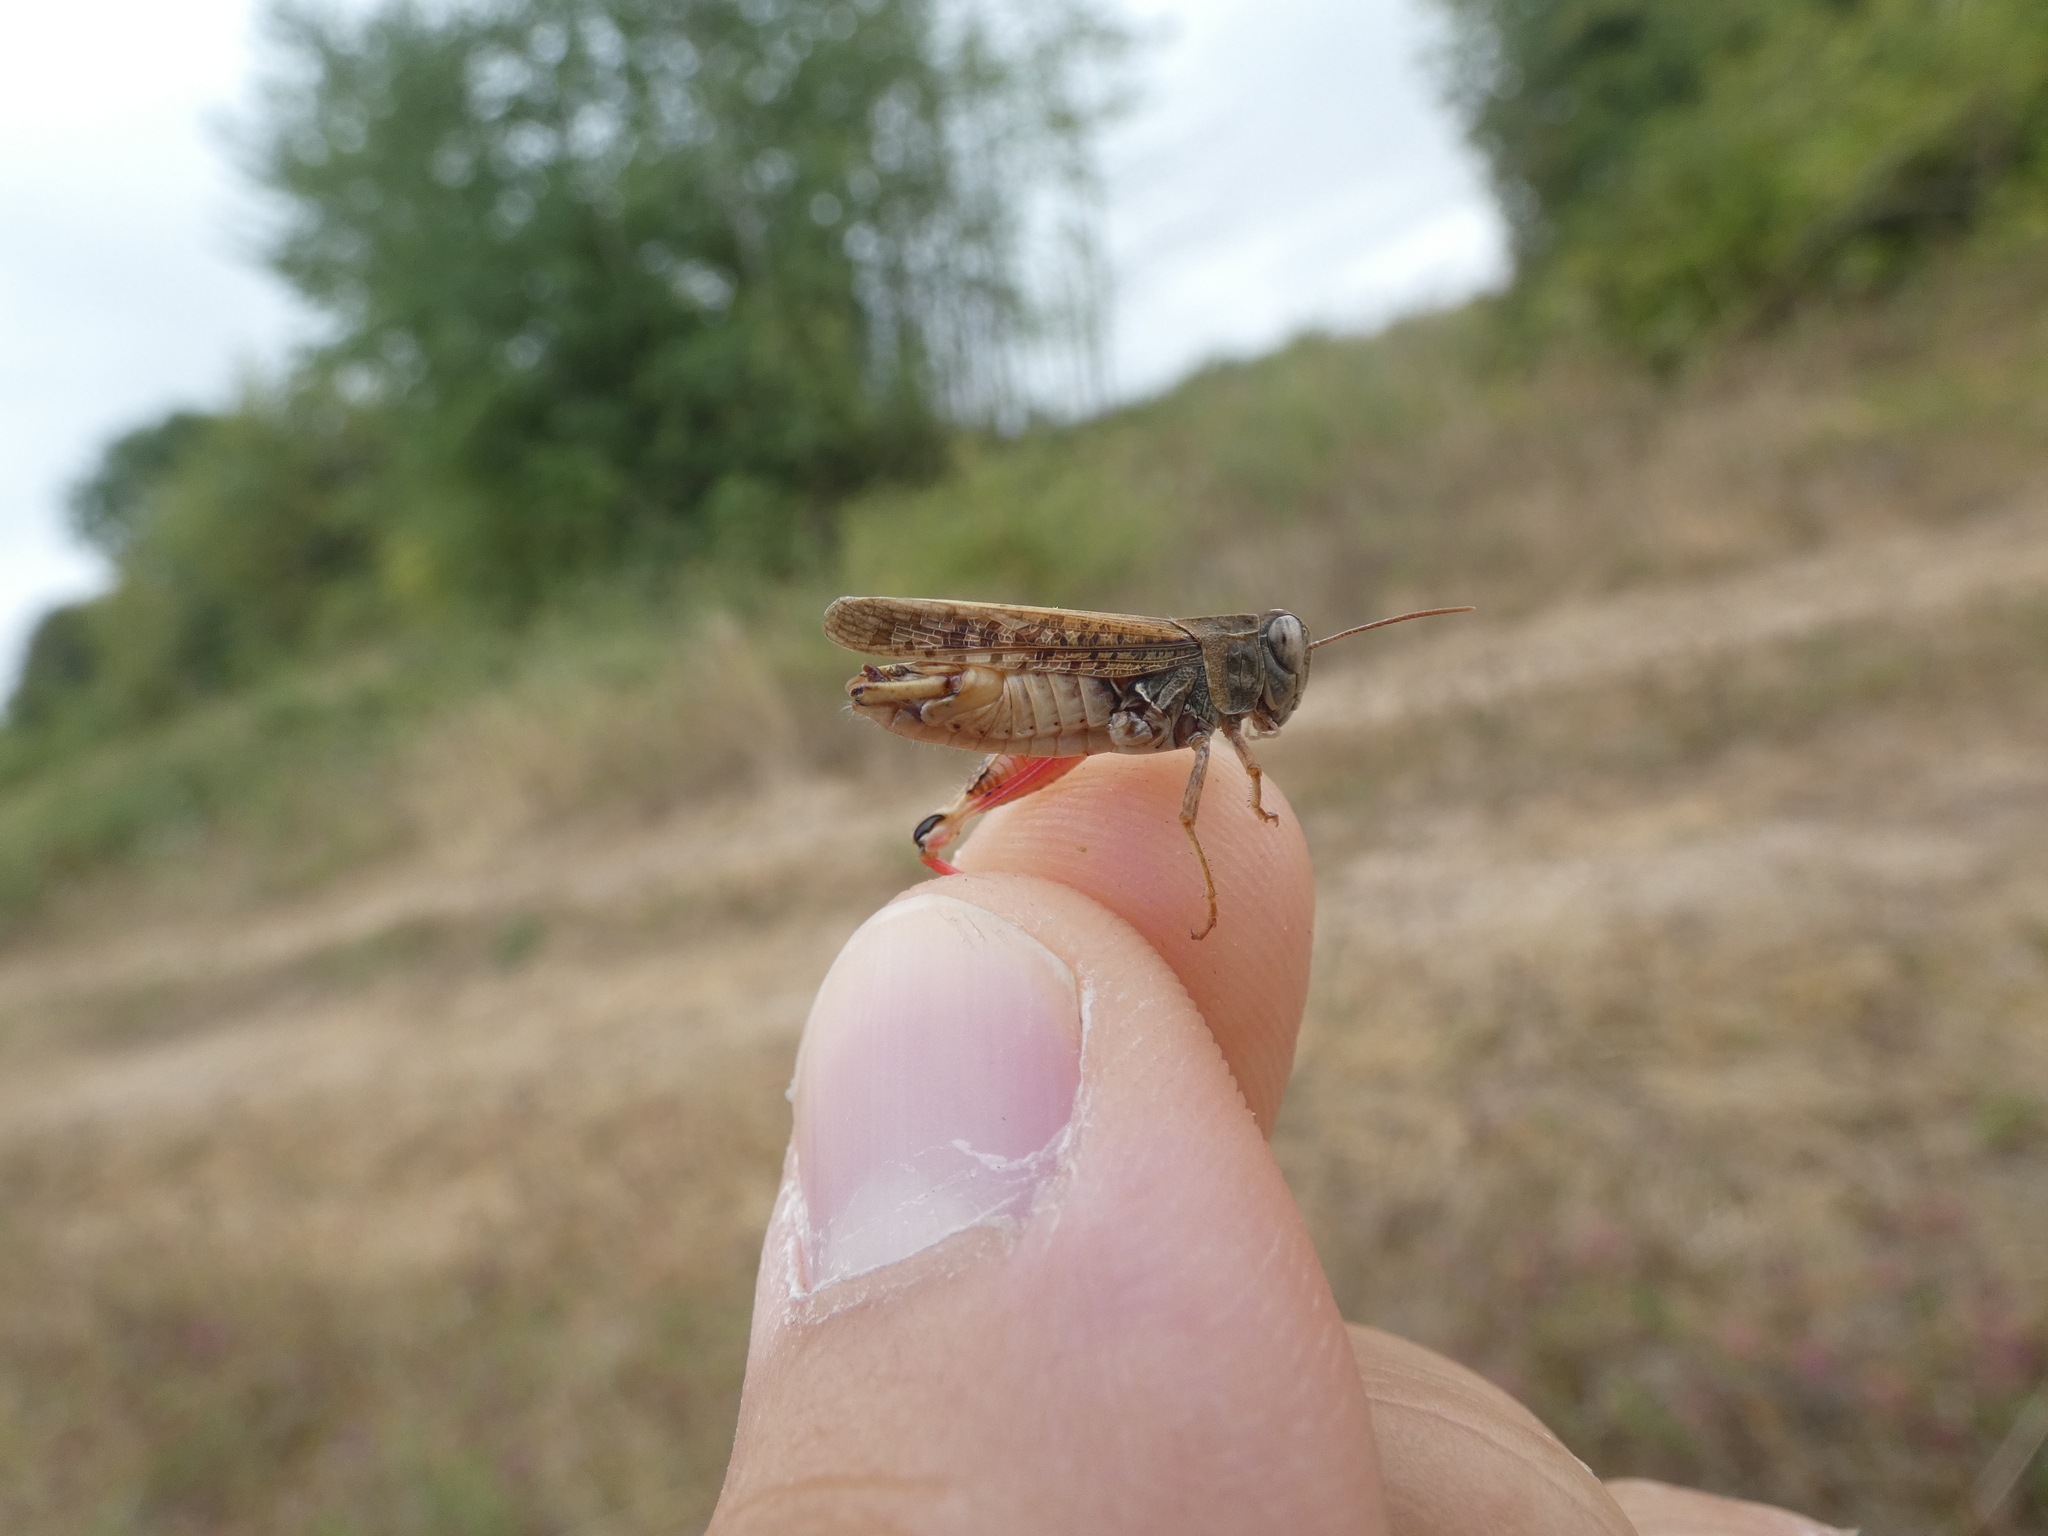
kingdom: Animalia
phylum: Arthropoda
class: Insecta
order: Orthoptera
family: Acrididae
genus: Calliptamus
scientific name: Calliptamus italicus
